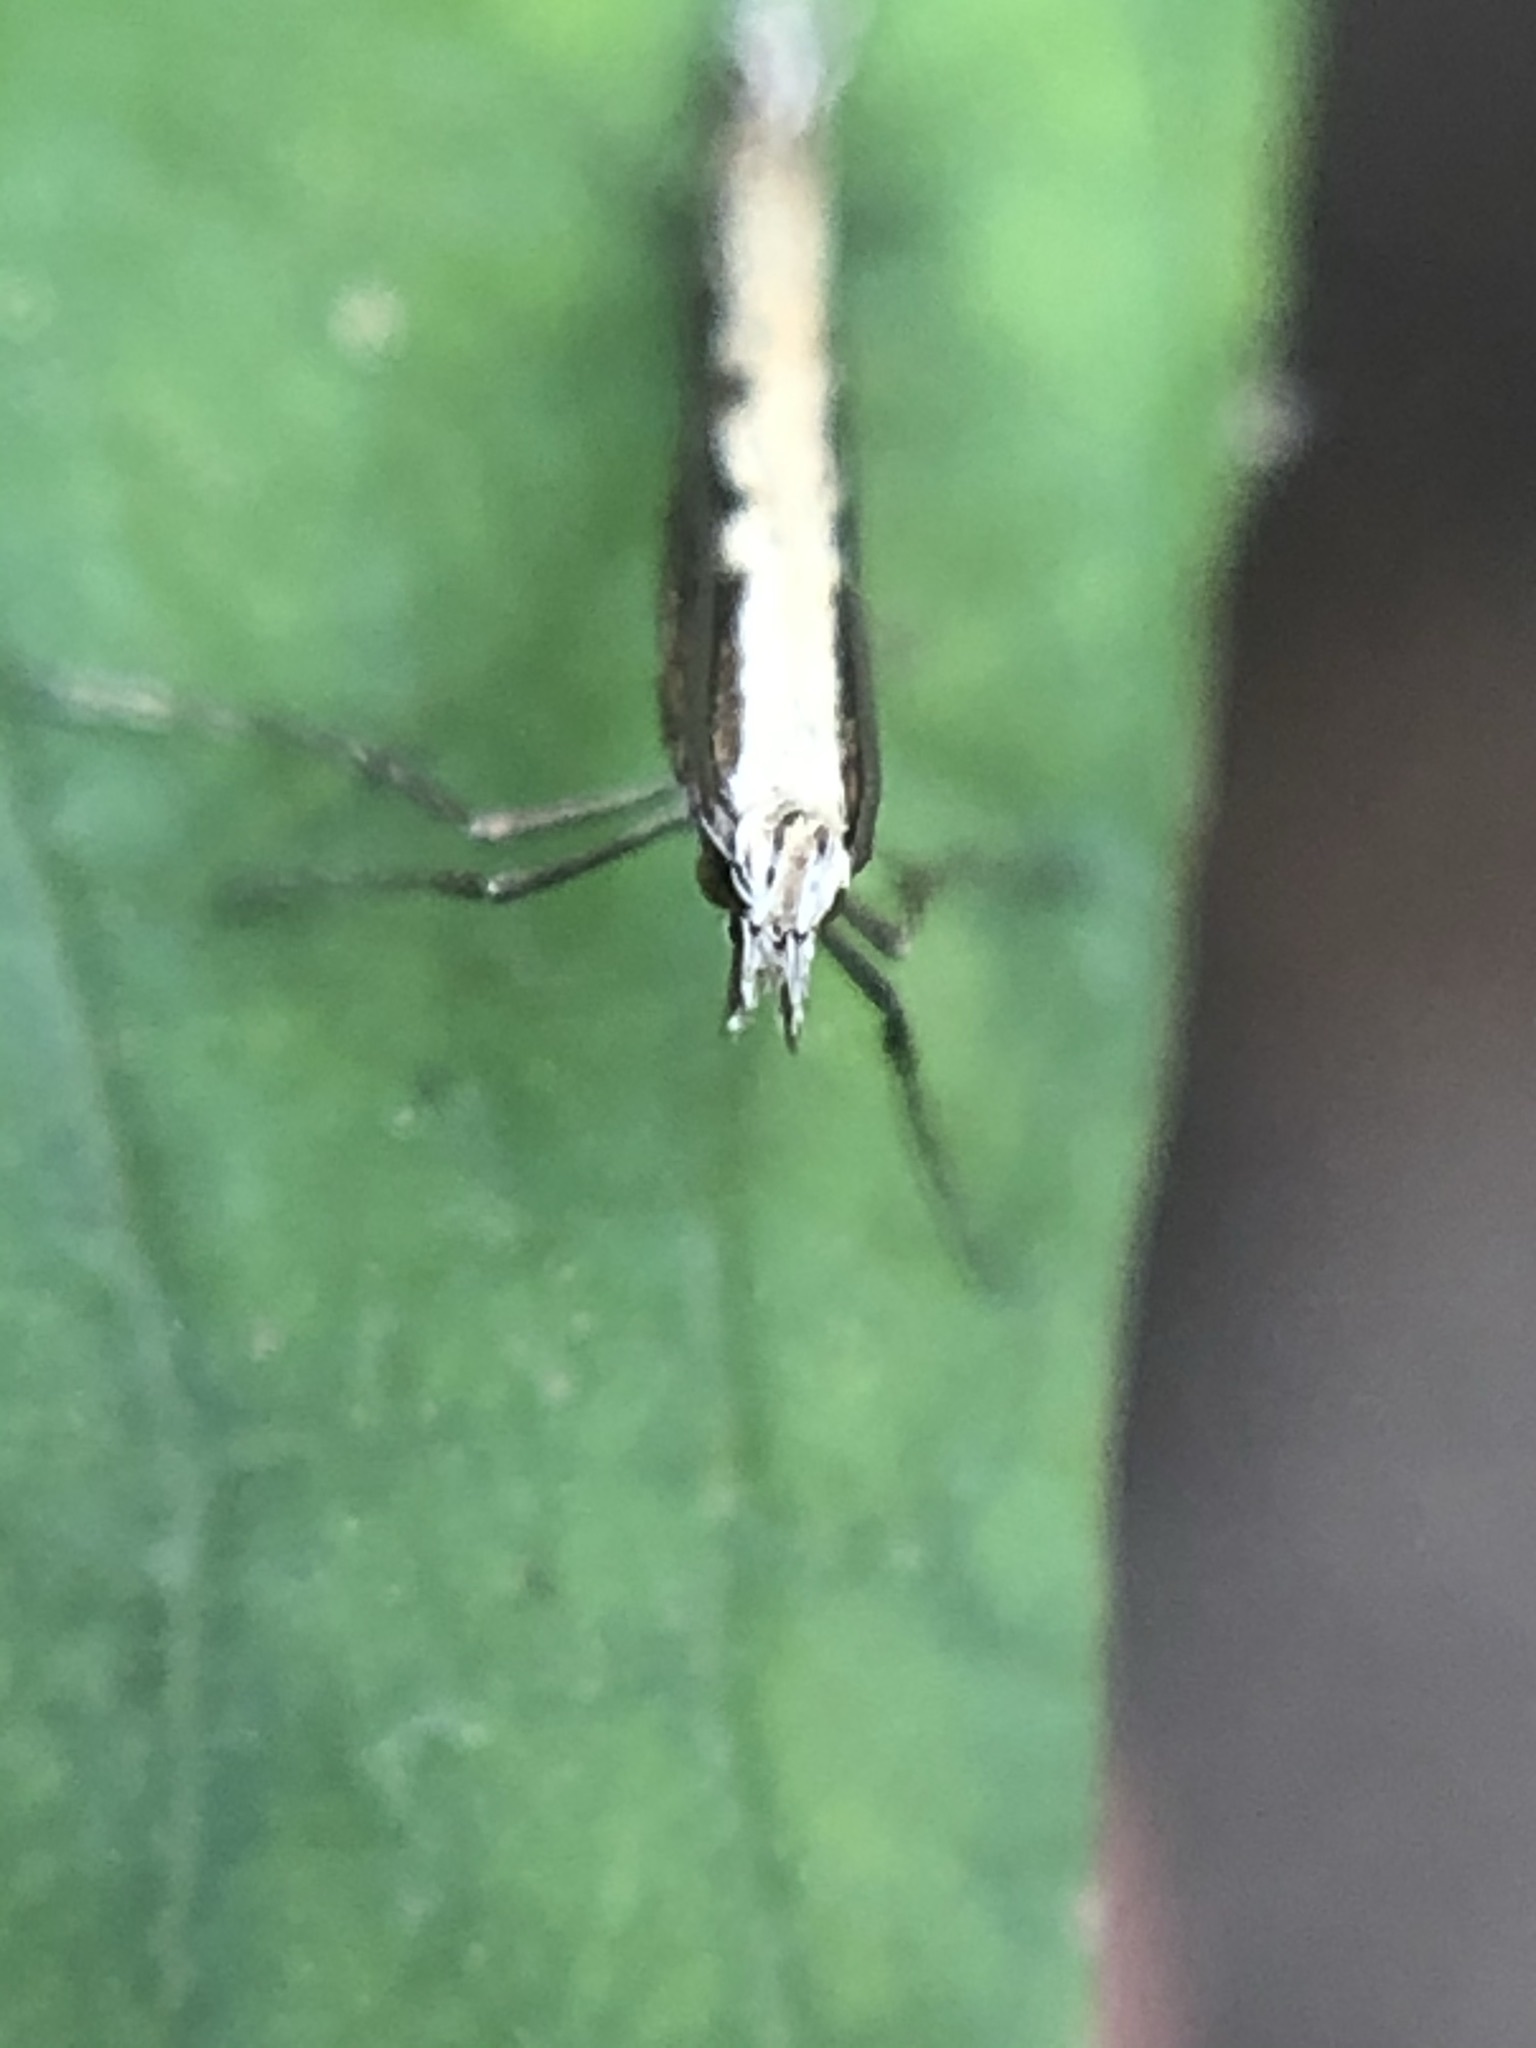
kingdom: Animalia
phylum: Arthropoda
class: Insecta
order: Lepidoptera
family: Plutellidae
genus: Plutella
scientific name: Plutella xylostella
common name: Diamond-back moth
